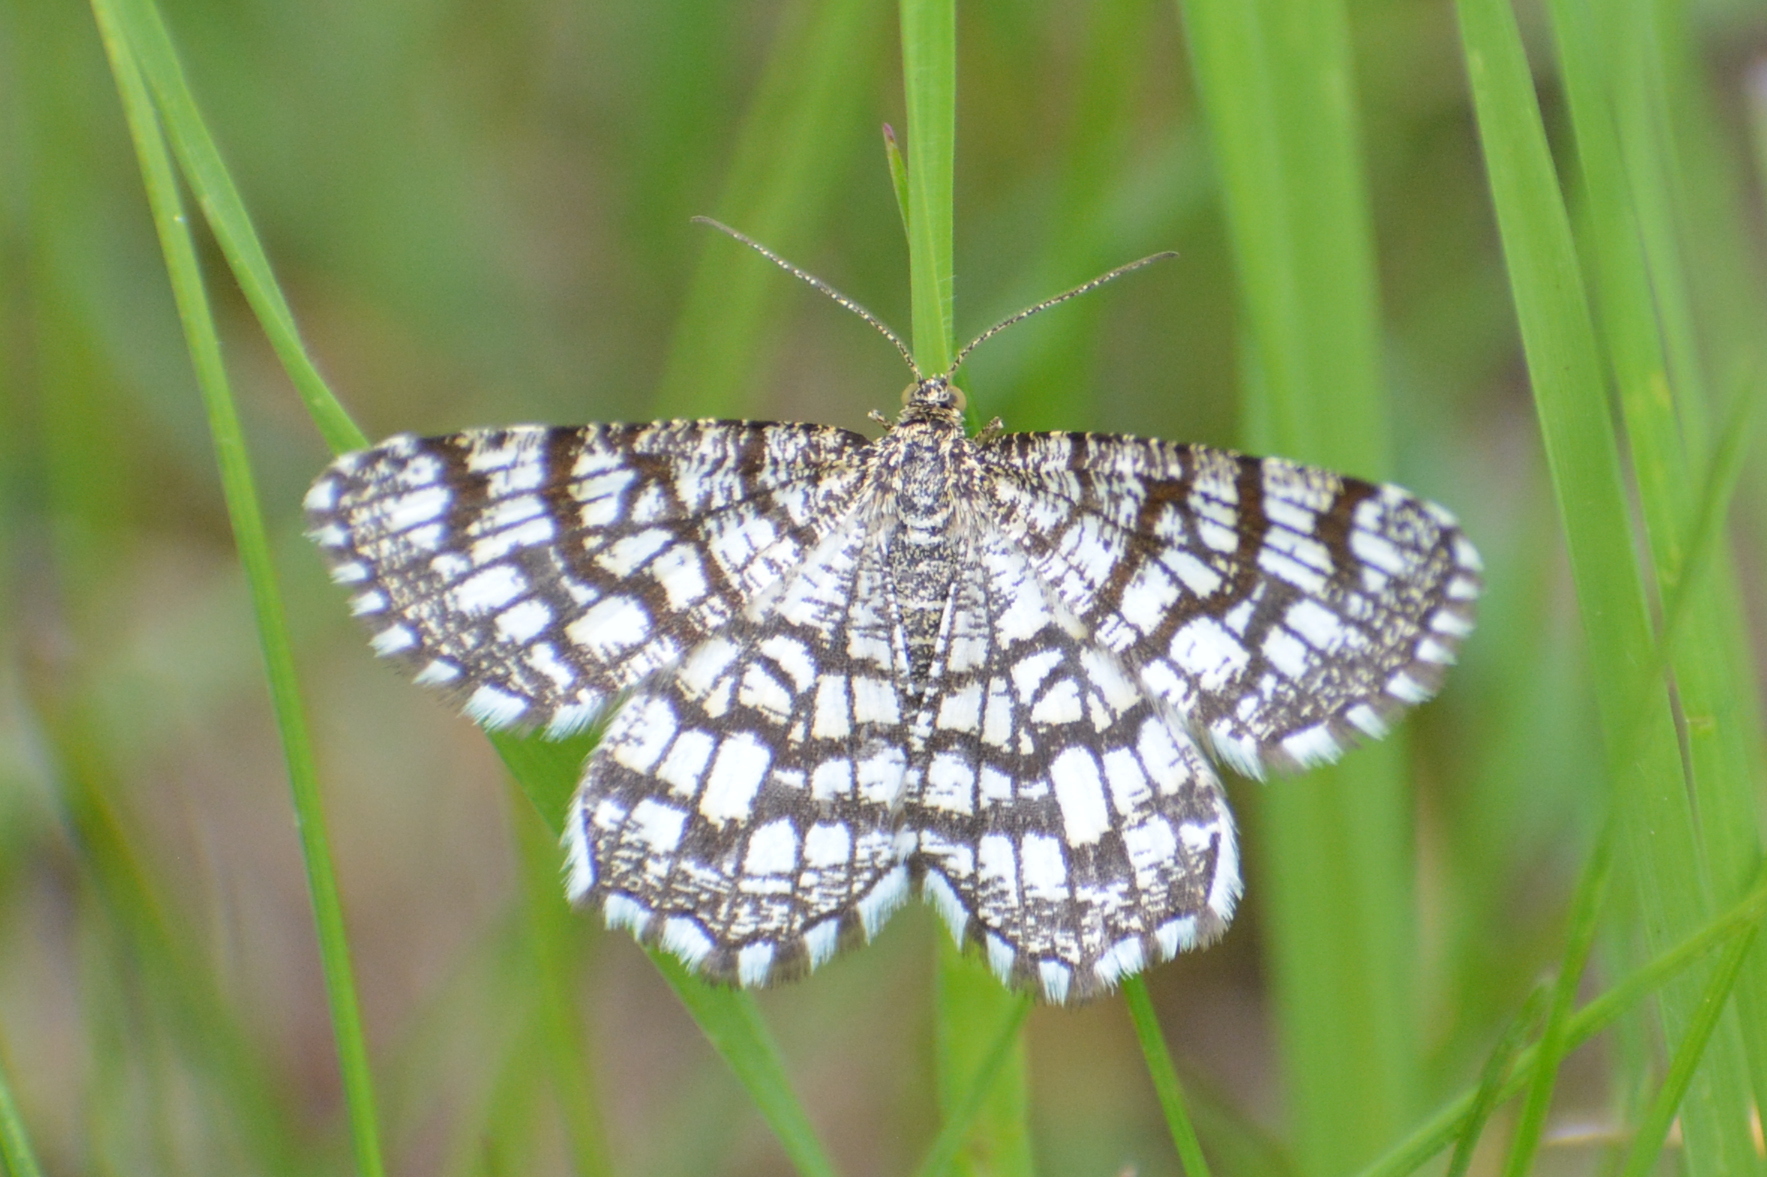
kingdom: Animalia
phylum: Arthropoda
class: Insecta
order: Lepidoptera
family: Geometridae
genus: Chiasmia
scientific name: Chiasmia clathrata
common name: Latticed heath
